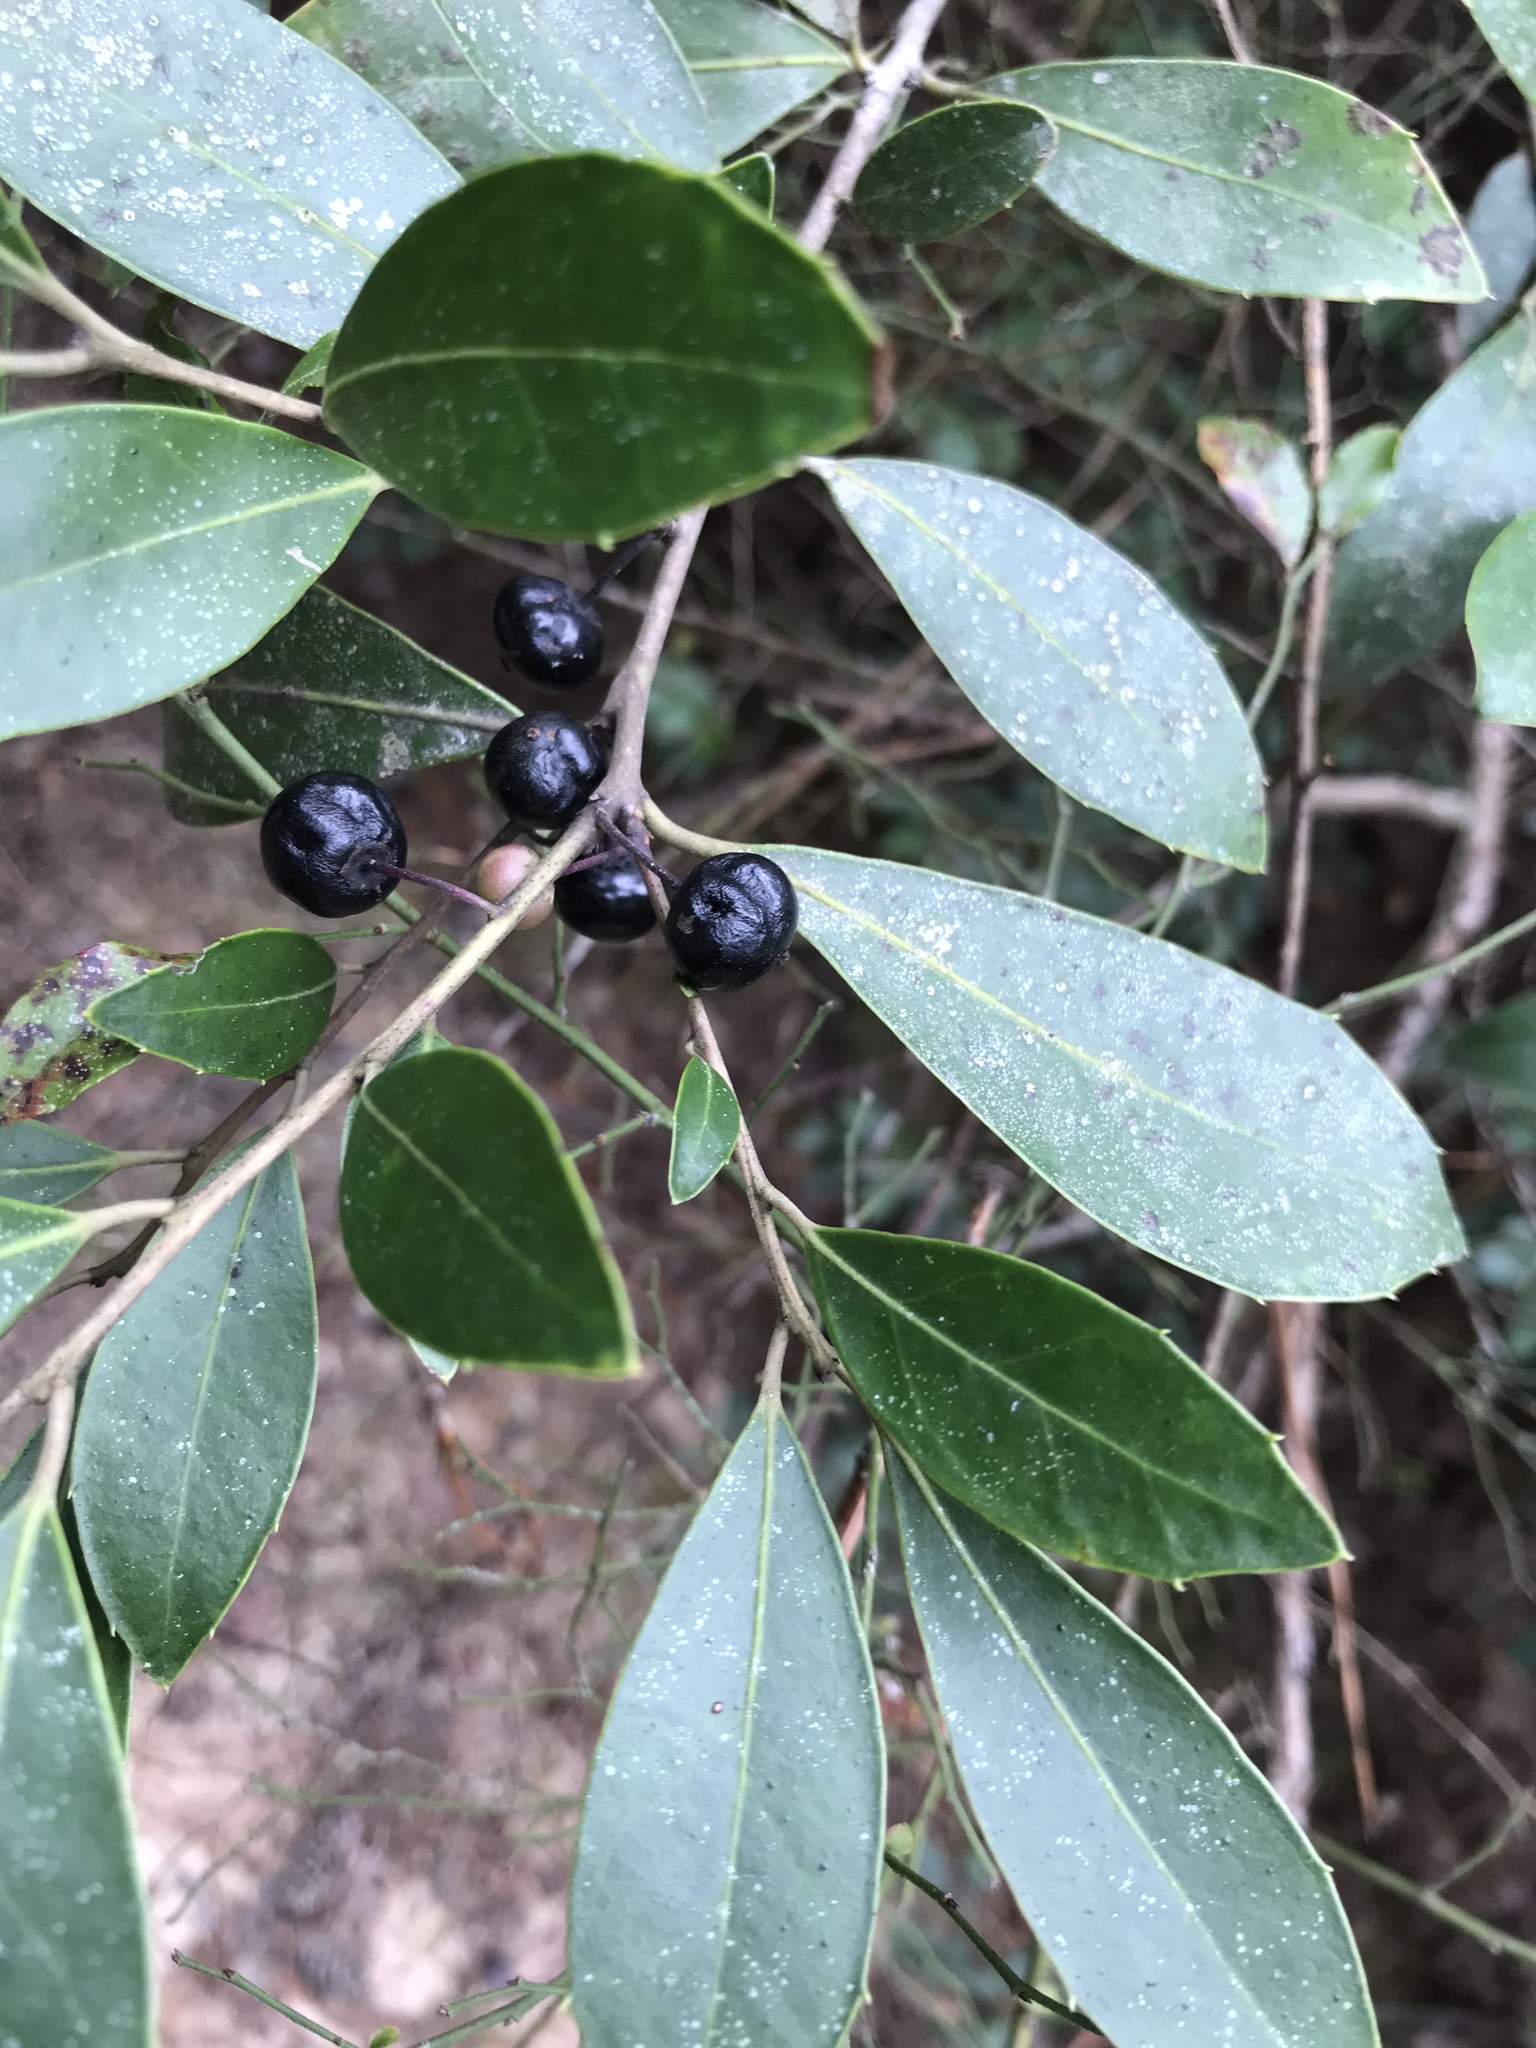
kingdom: Plantae
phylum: Tracheophyta
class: Magnoliopsida
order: Aquifoliales
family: Aquifoliaceae
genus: Ilex
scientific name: Ilex coriacea
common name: Sweet gallberry
